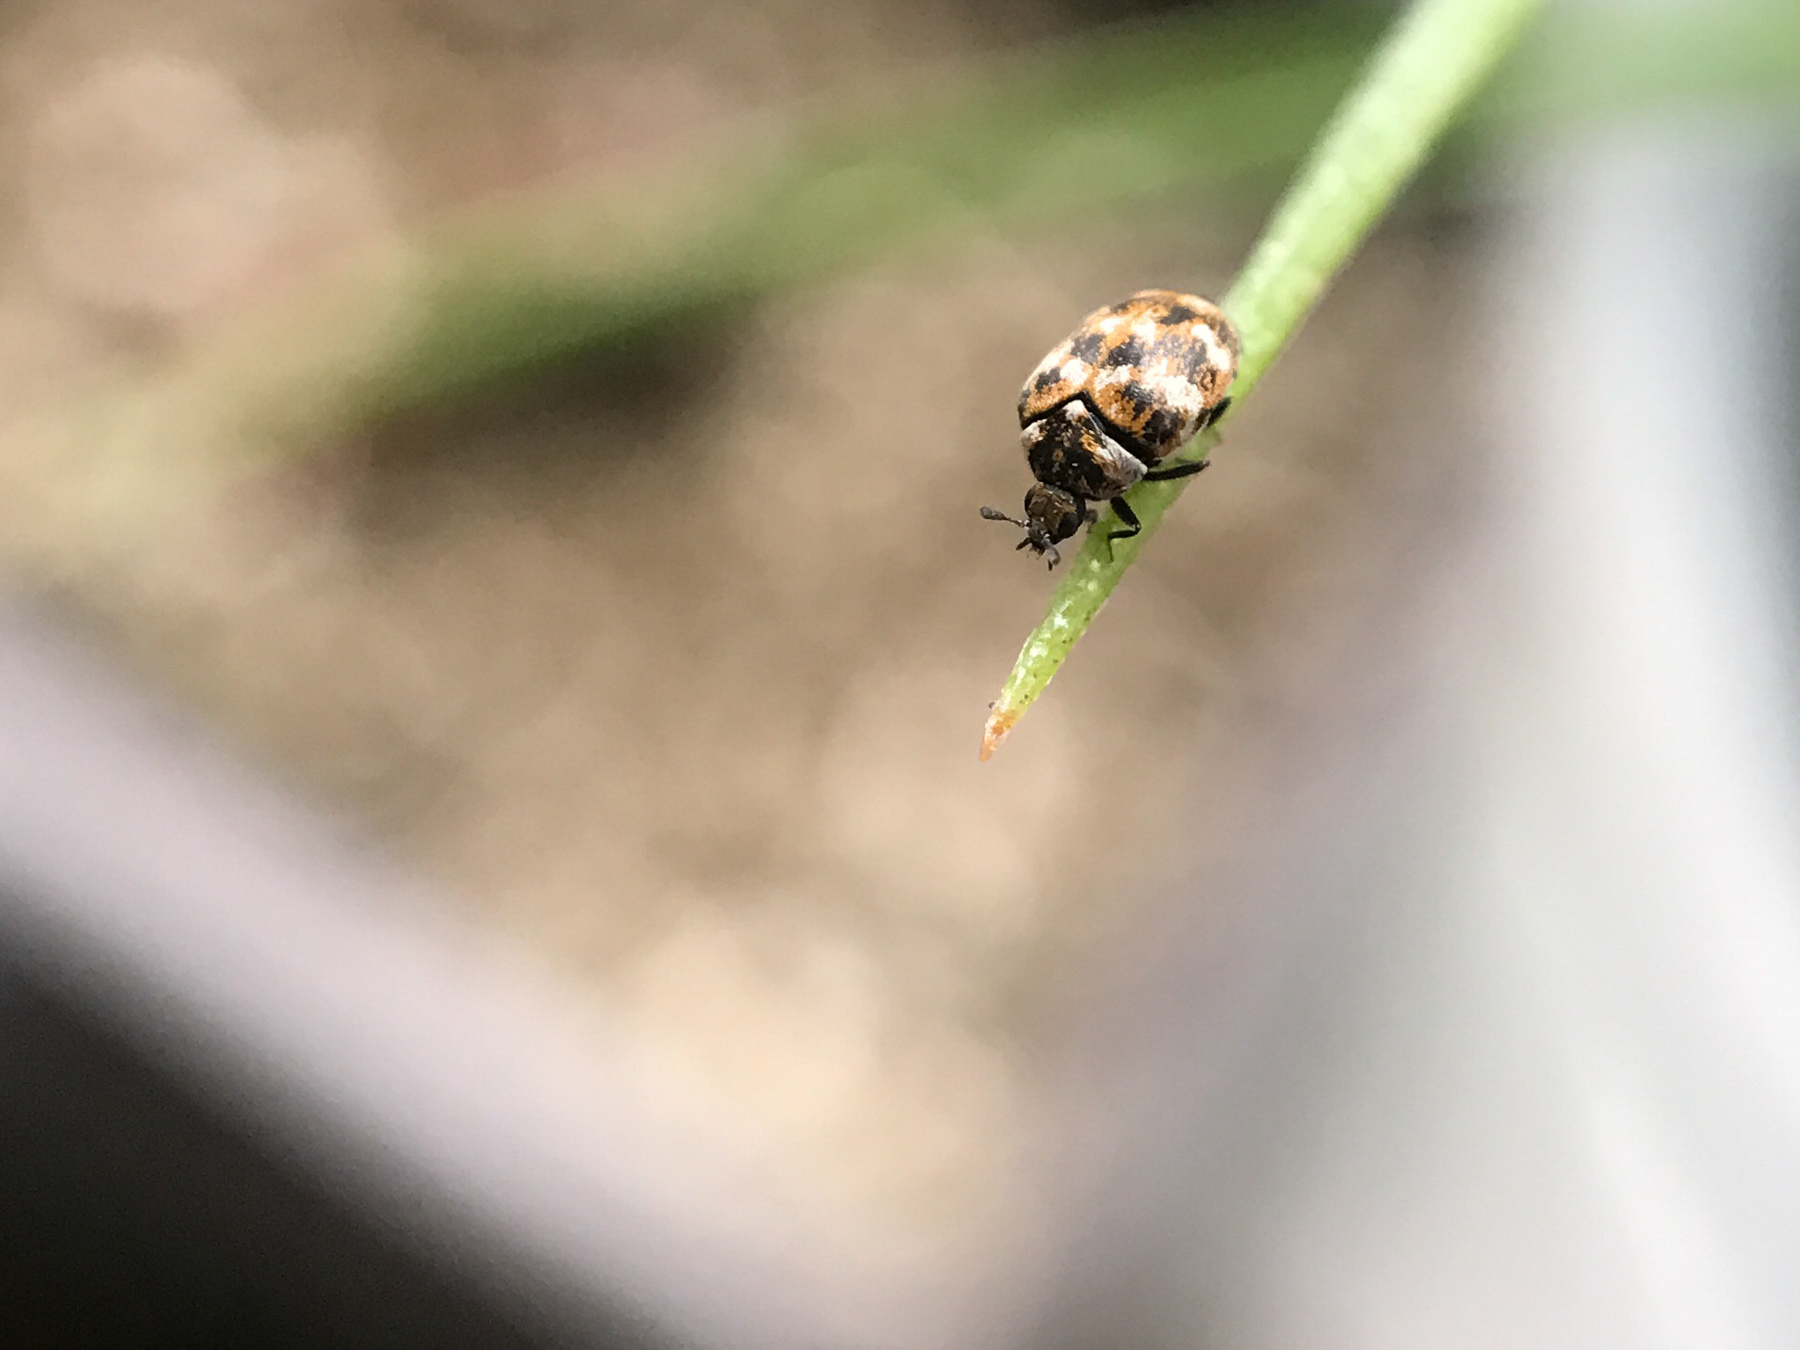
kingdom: Animalia
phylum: Arthropoda
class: Insecta
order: Coleoptera
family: Dermestidae
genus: Anthrenus
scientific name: Anthrenus verbasci
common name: Varied carpet beetle
